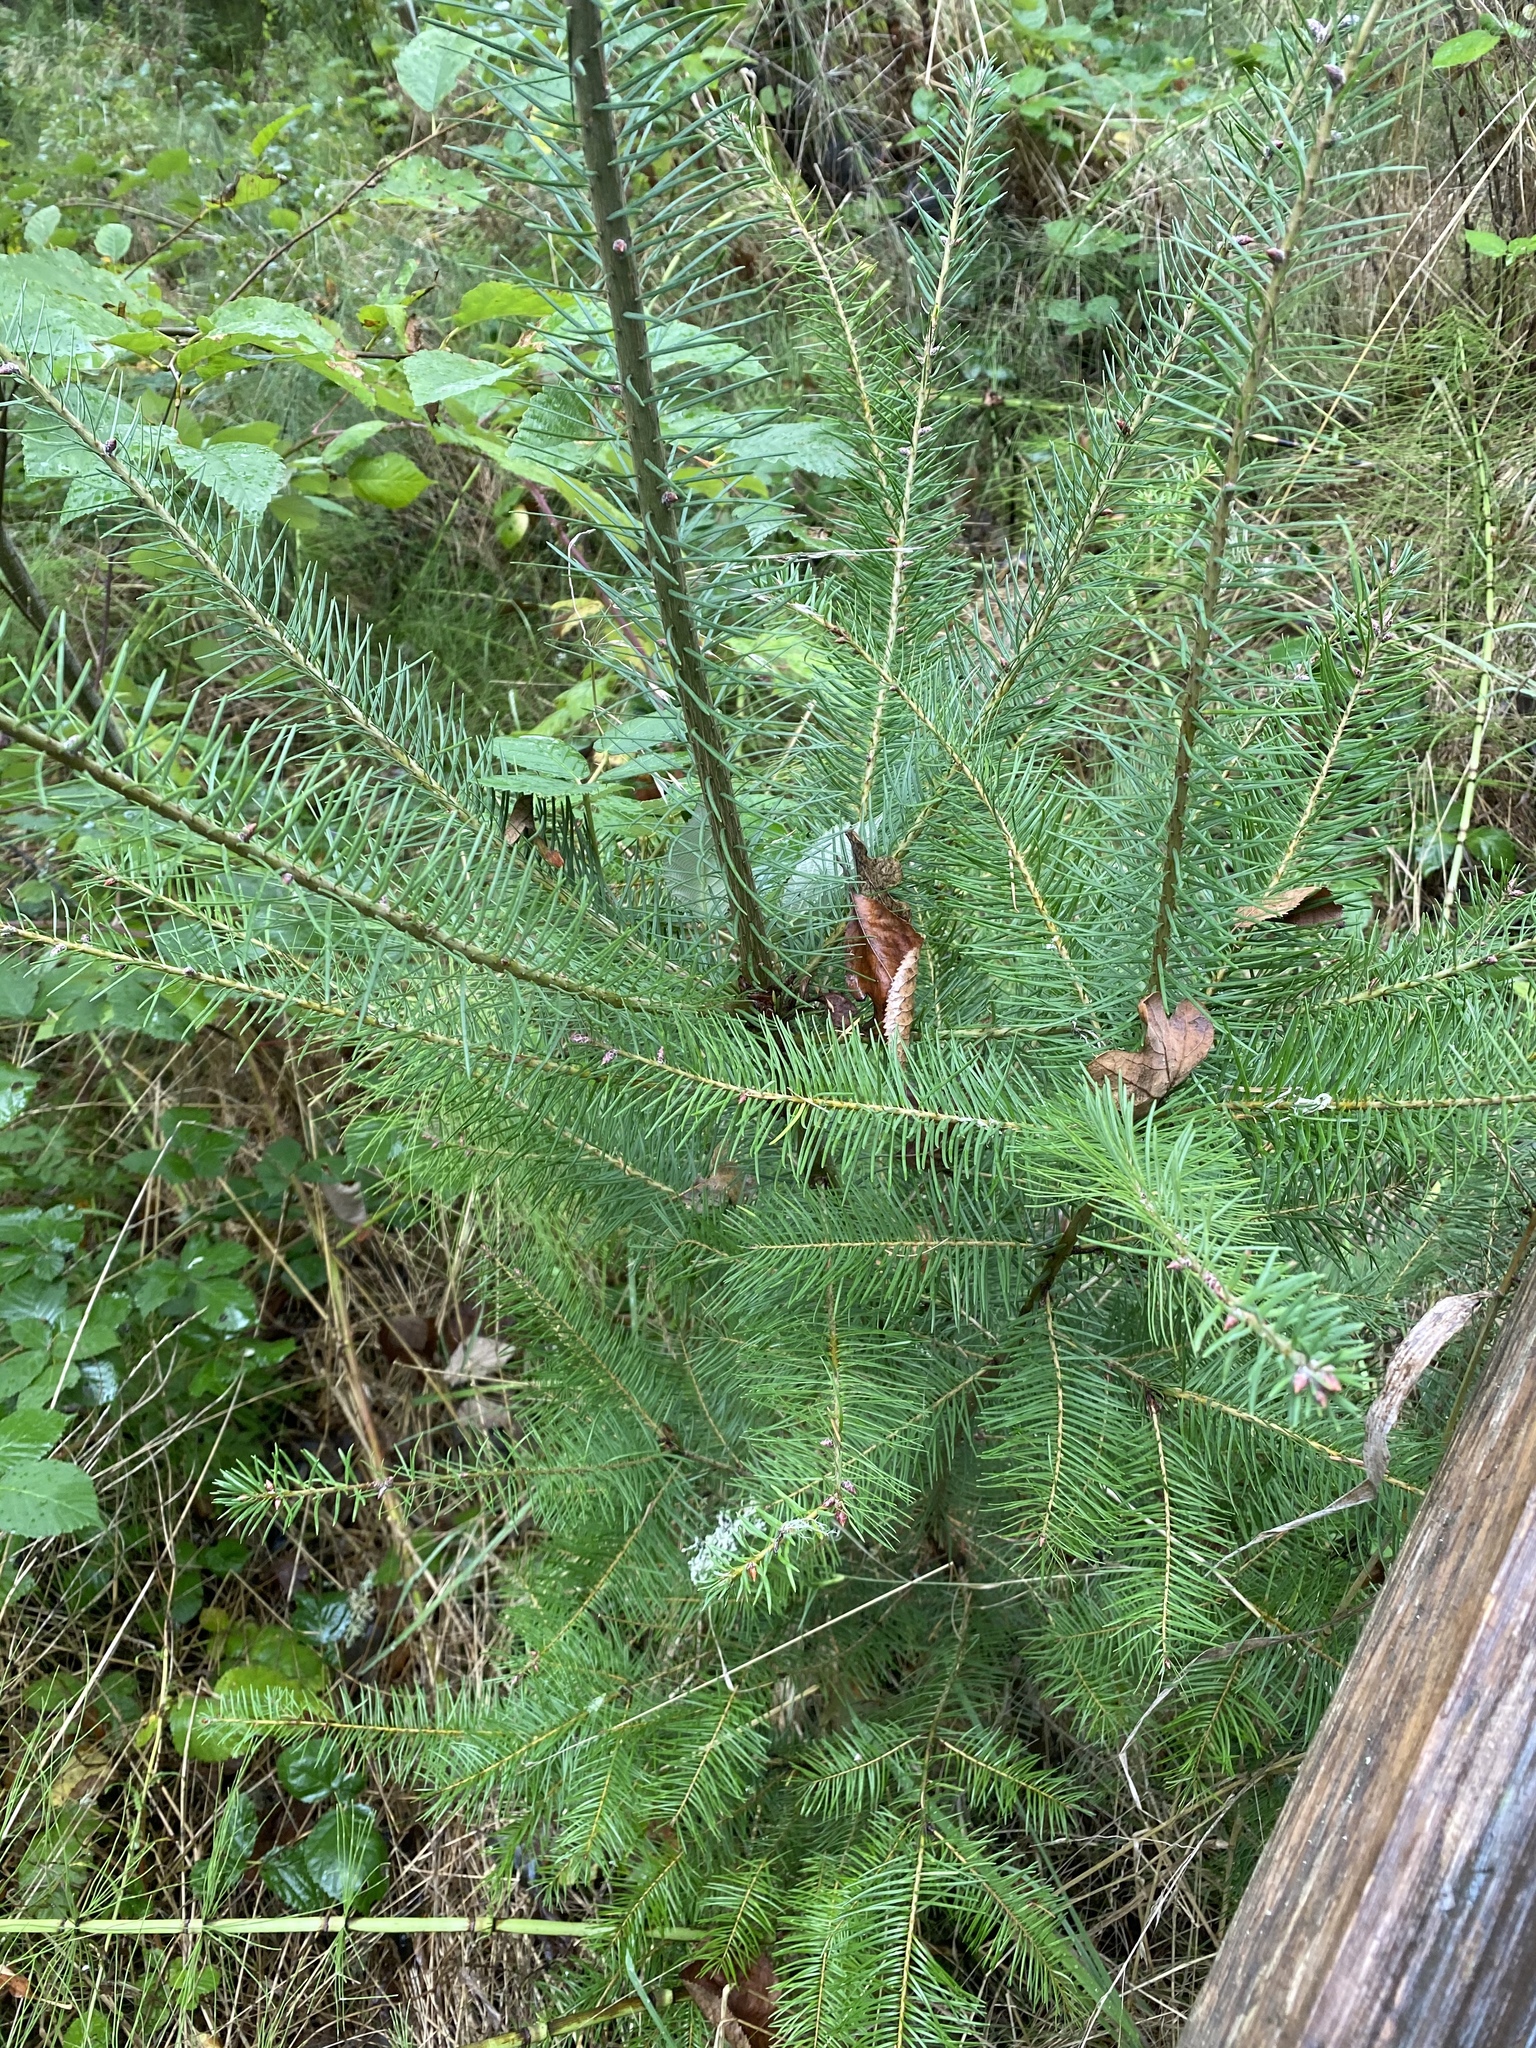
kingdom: Plantae
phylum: Tracheophyta
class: Pinopsida
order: Pinales
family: Pinaceae
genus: Pseudotsuga
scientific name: Pseudotsuga menziesii
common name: Douglas fir
